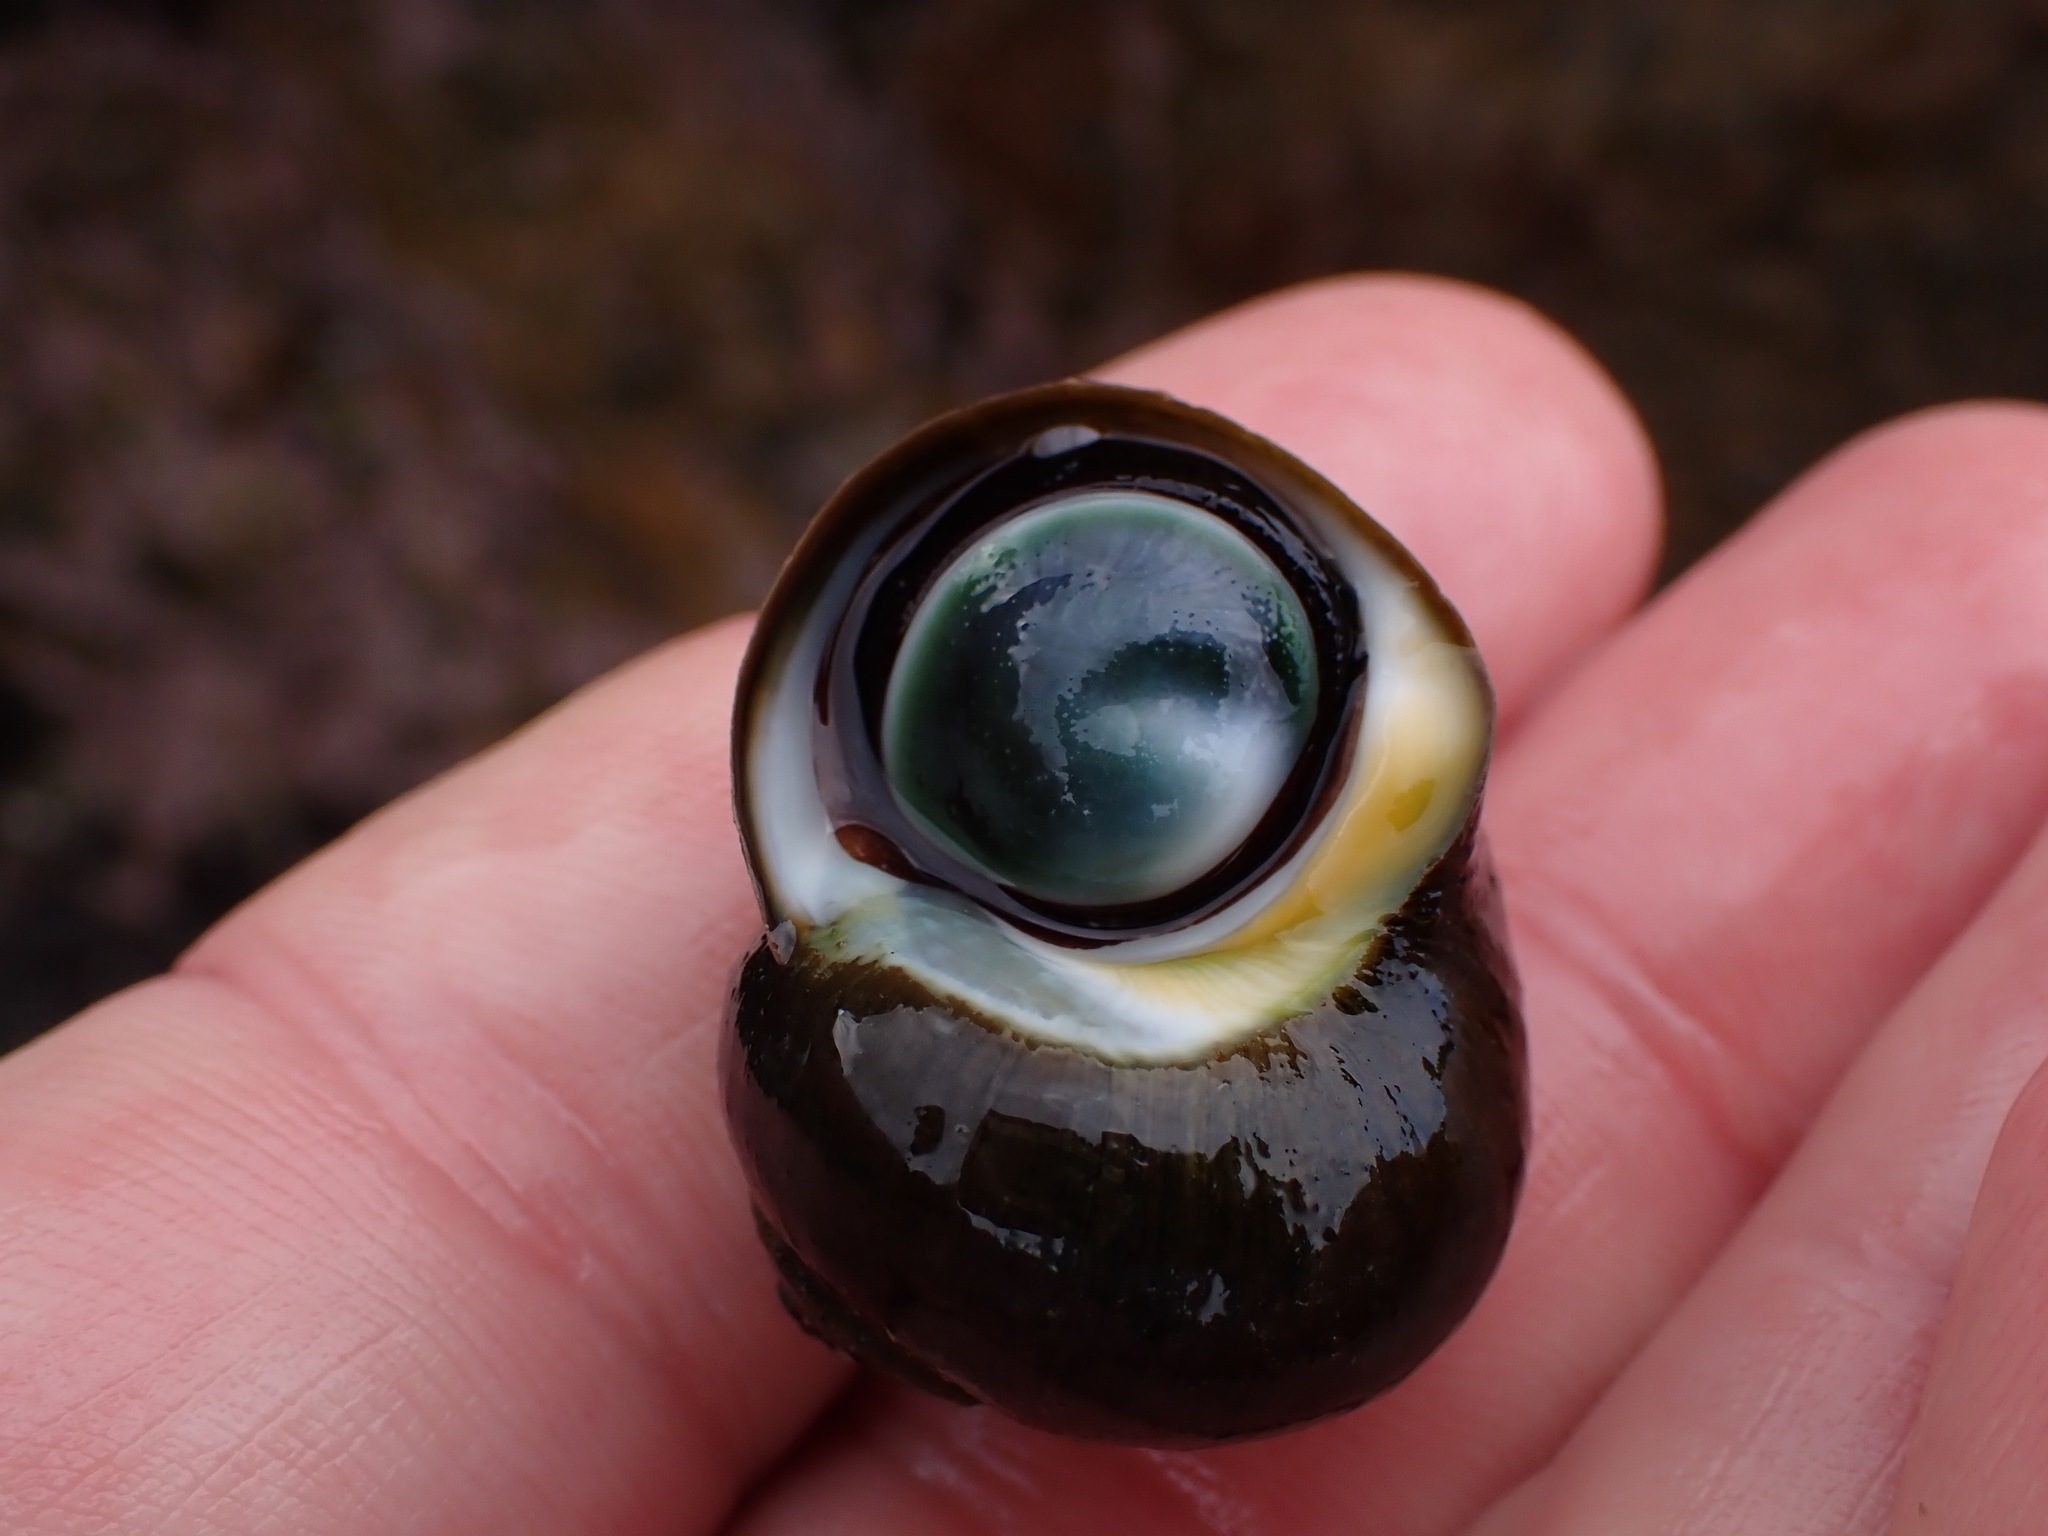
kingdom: Animalia
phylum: Mollusca
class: Gastropoda
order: Trochida
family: Turbinidae
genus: Lunella
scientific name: Lunella smaragda
